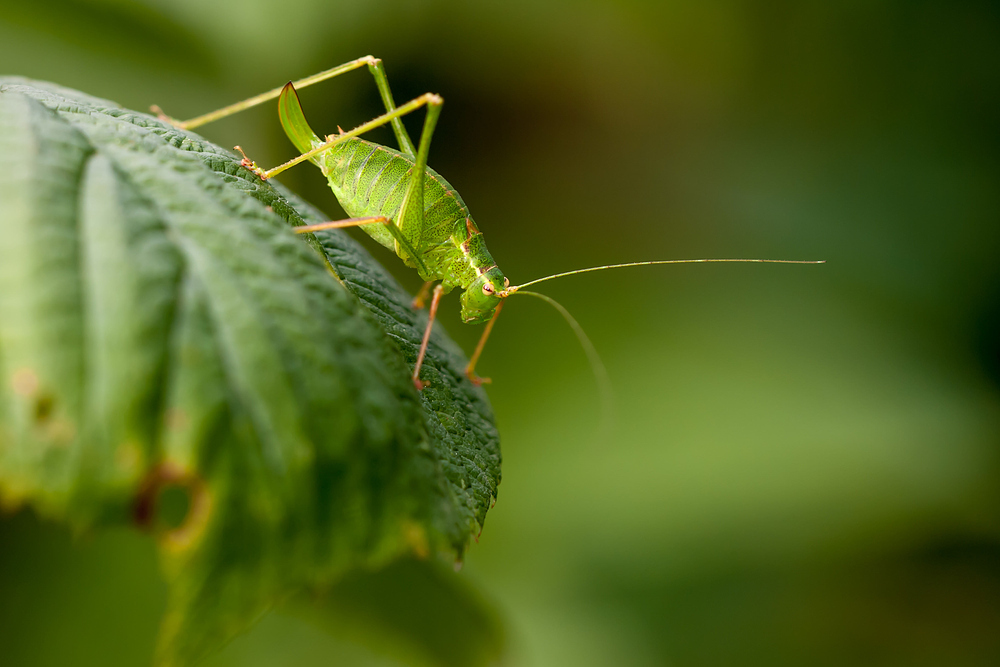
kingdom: Animalia
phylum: Arthropoda
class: Insecta
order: Orthoptera
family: Tettigoniidae
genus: Leptophyes
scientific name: Leptophyes punctatissima
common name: Speckled bush-cricket
